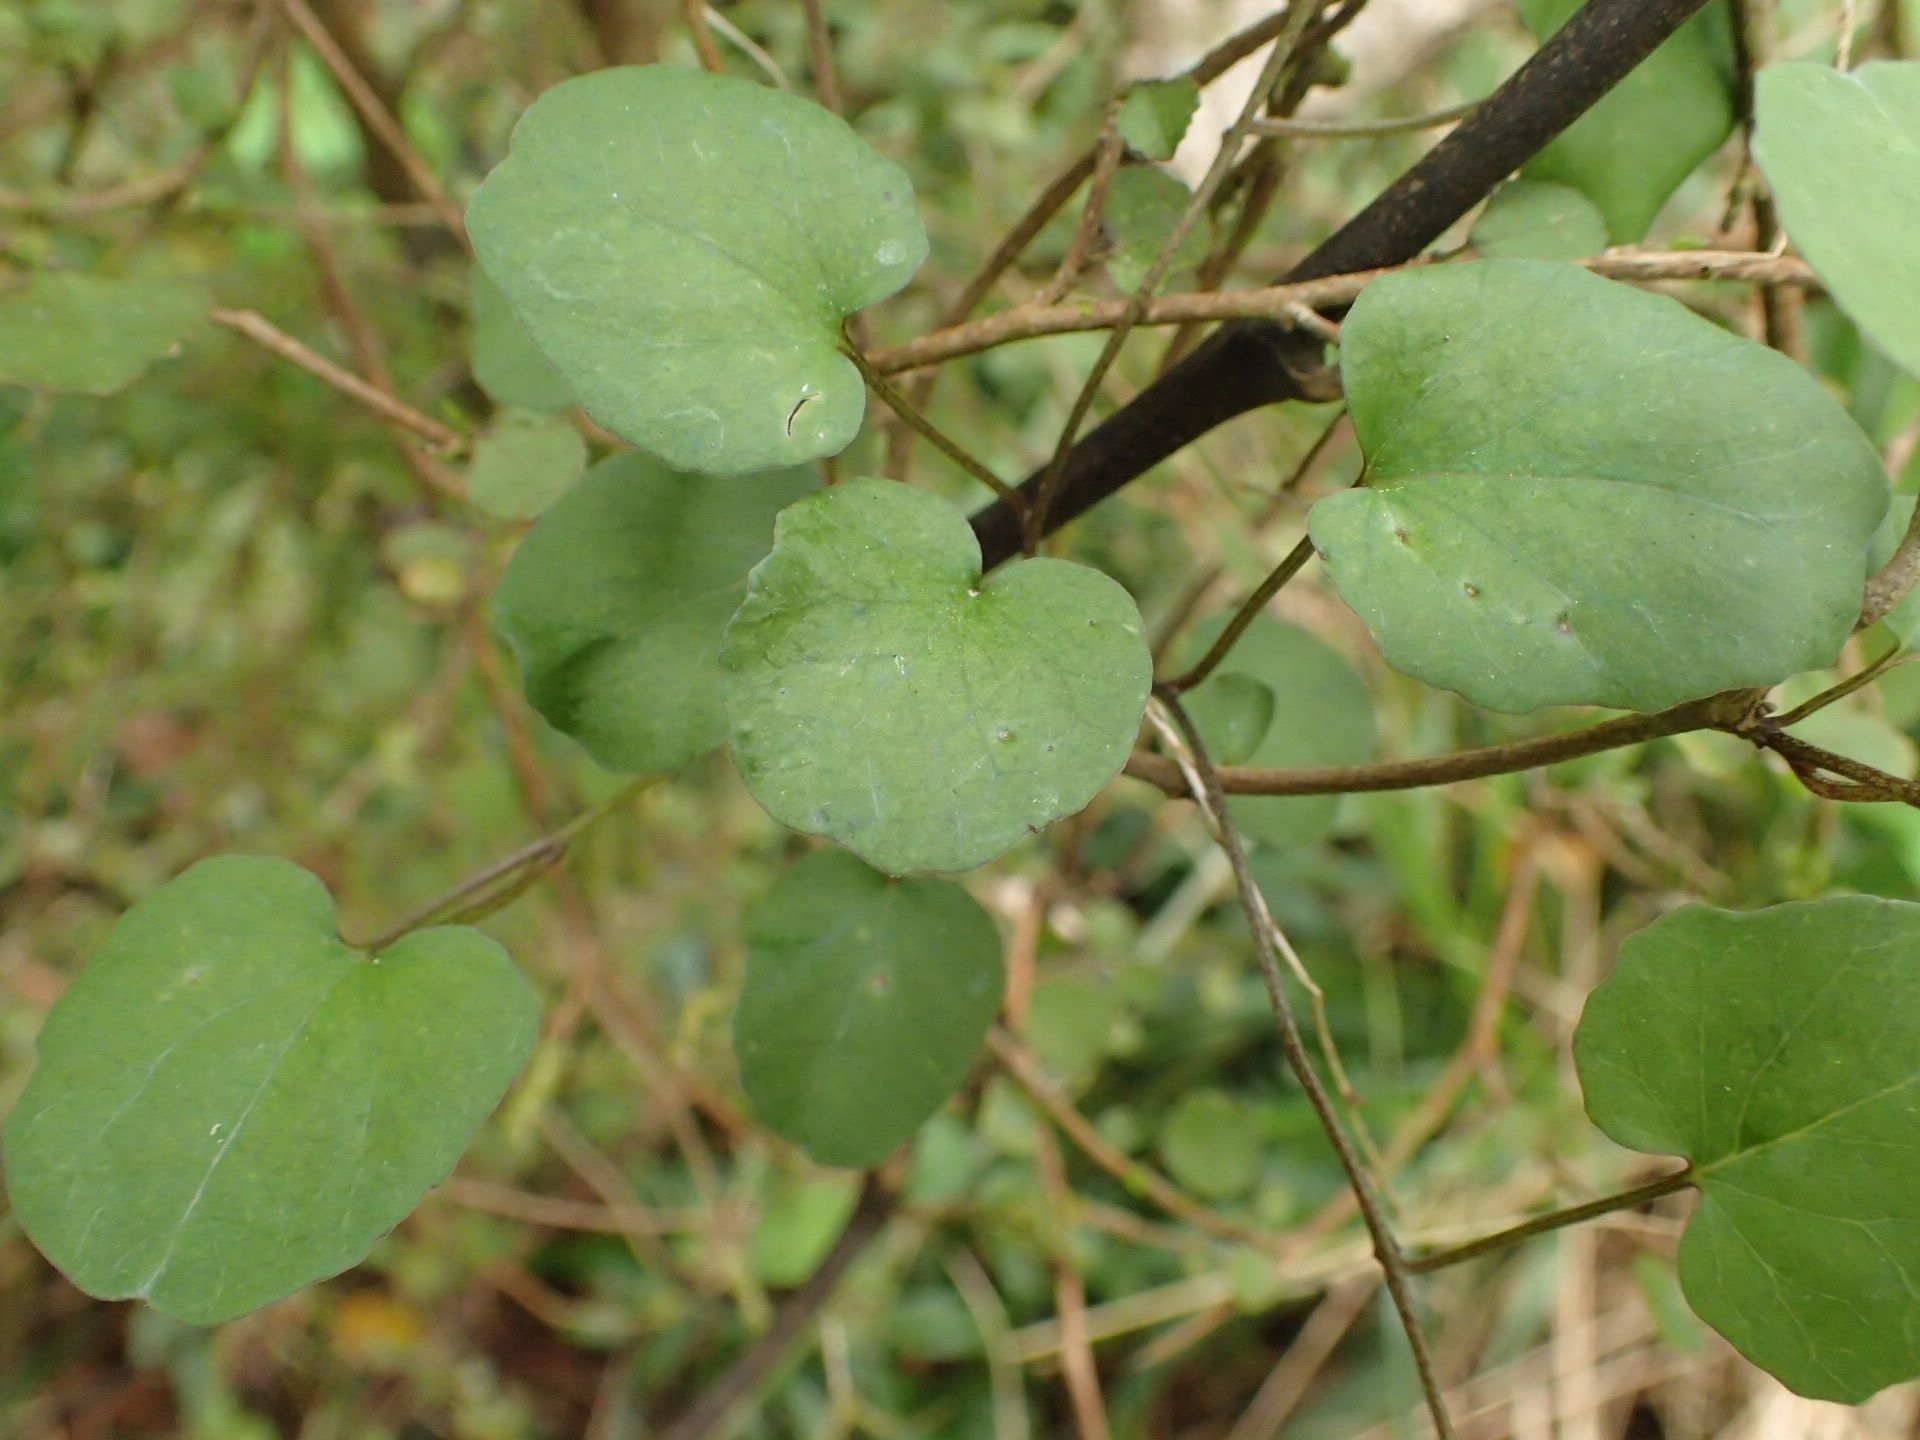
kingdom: Plantae
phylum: Tracheophyta
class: Magnoliopsida
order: Solanales
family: Convolvulaceae
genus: Calystegia
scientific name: Calystegia tuguriorum
